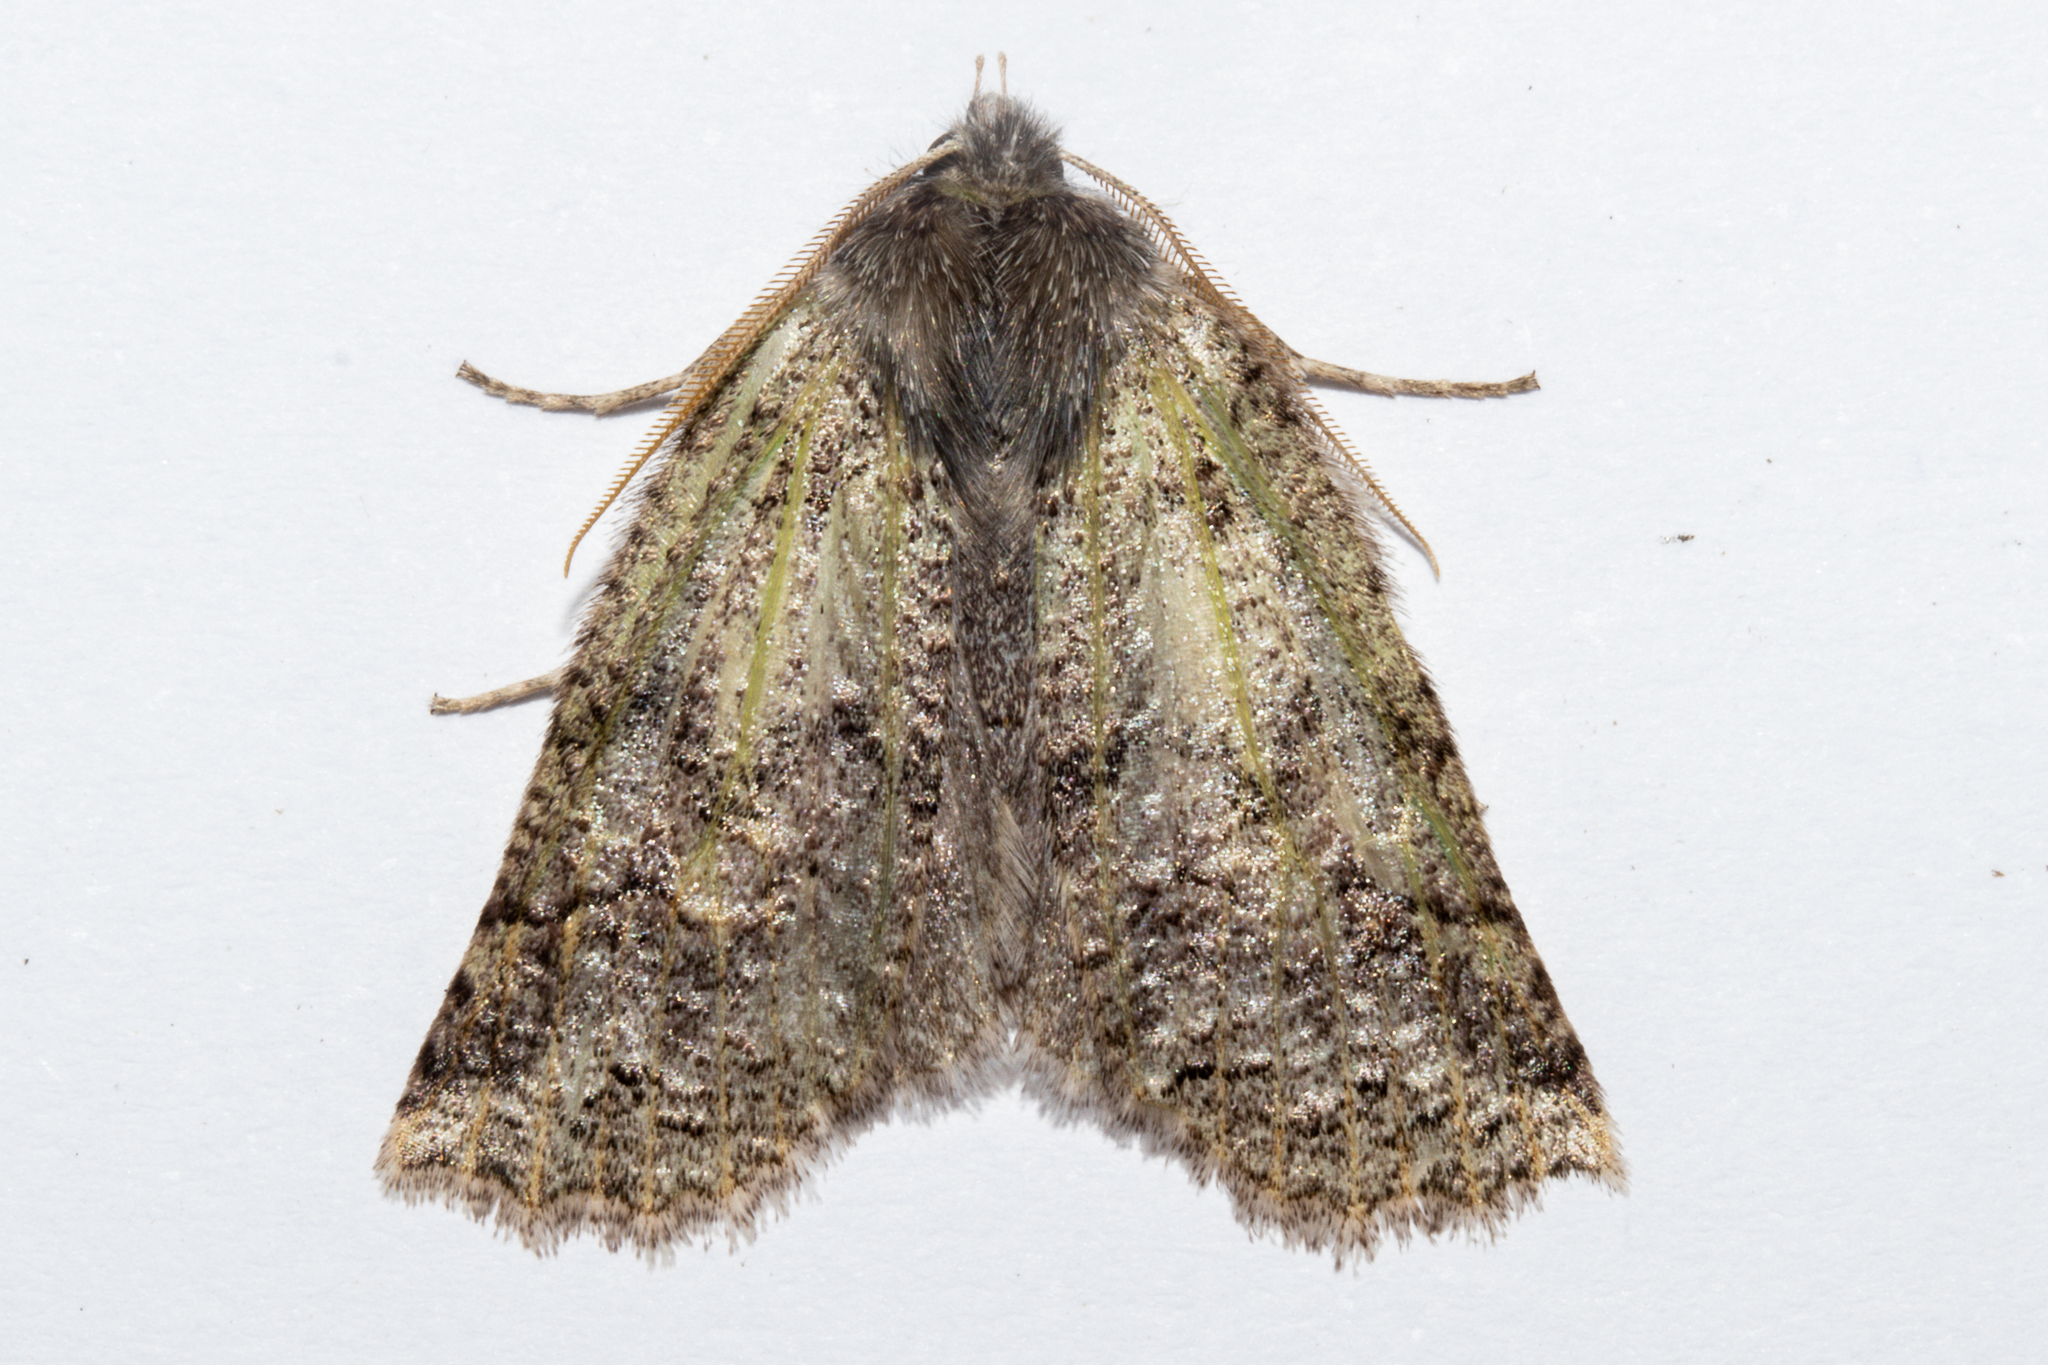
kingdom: Animalia
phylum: Arthropoda
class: Insecta
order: Lepidoptera
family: Geometridae
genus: Declana
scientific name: Declana floccosa
